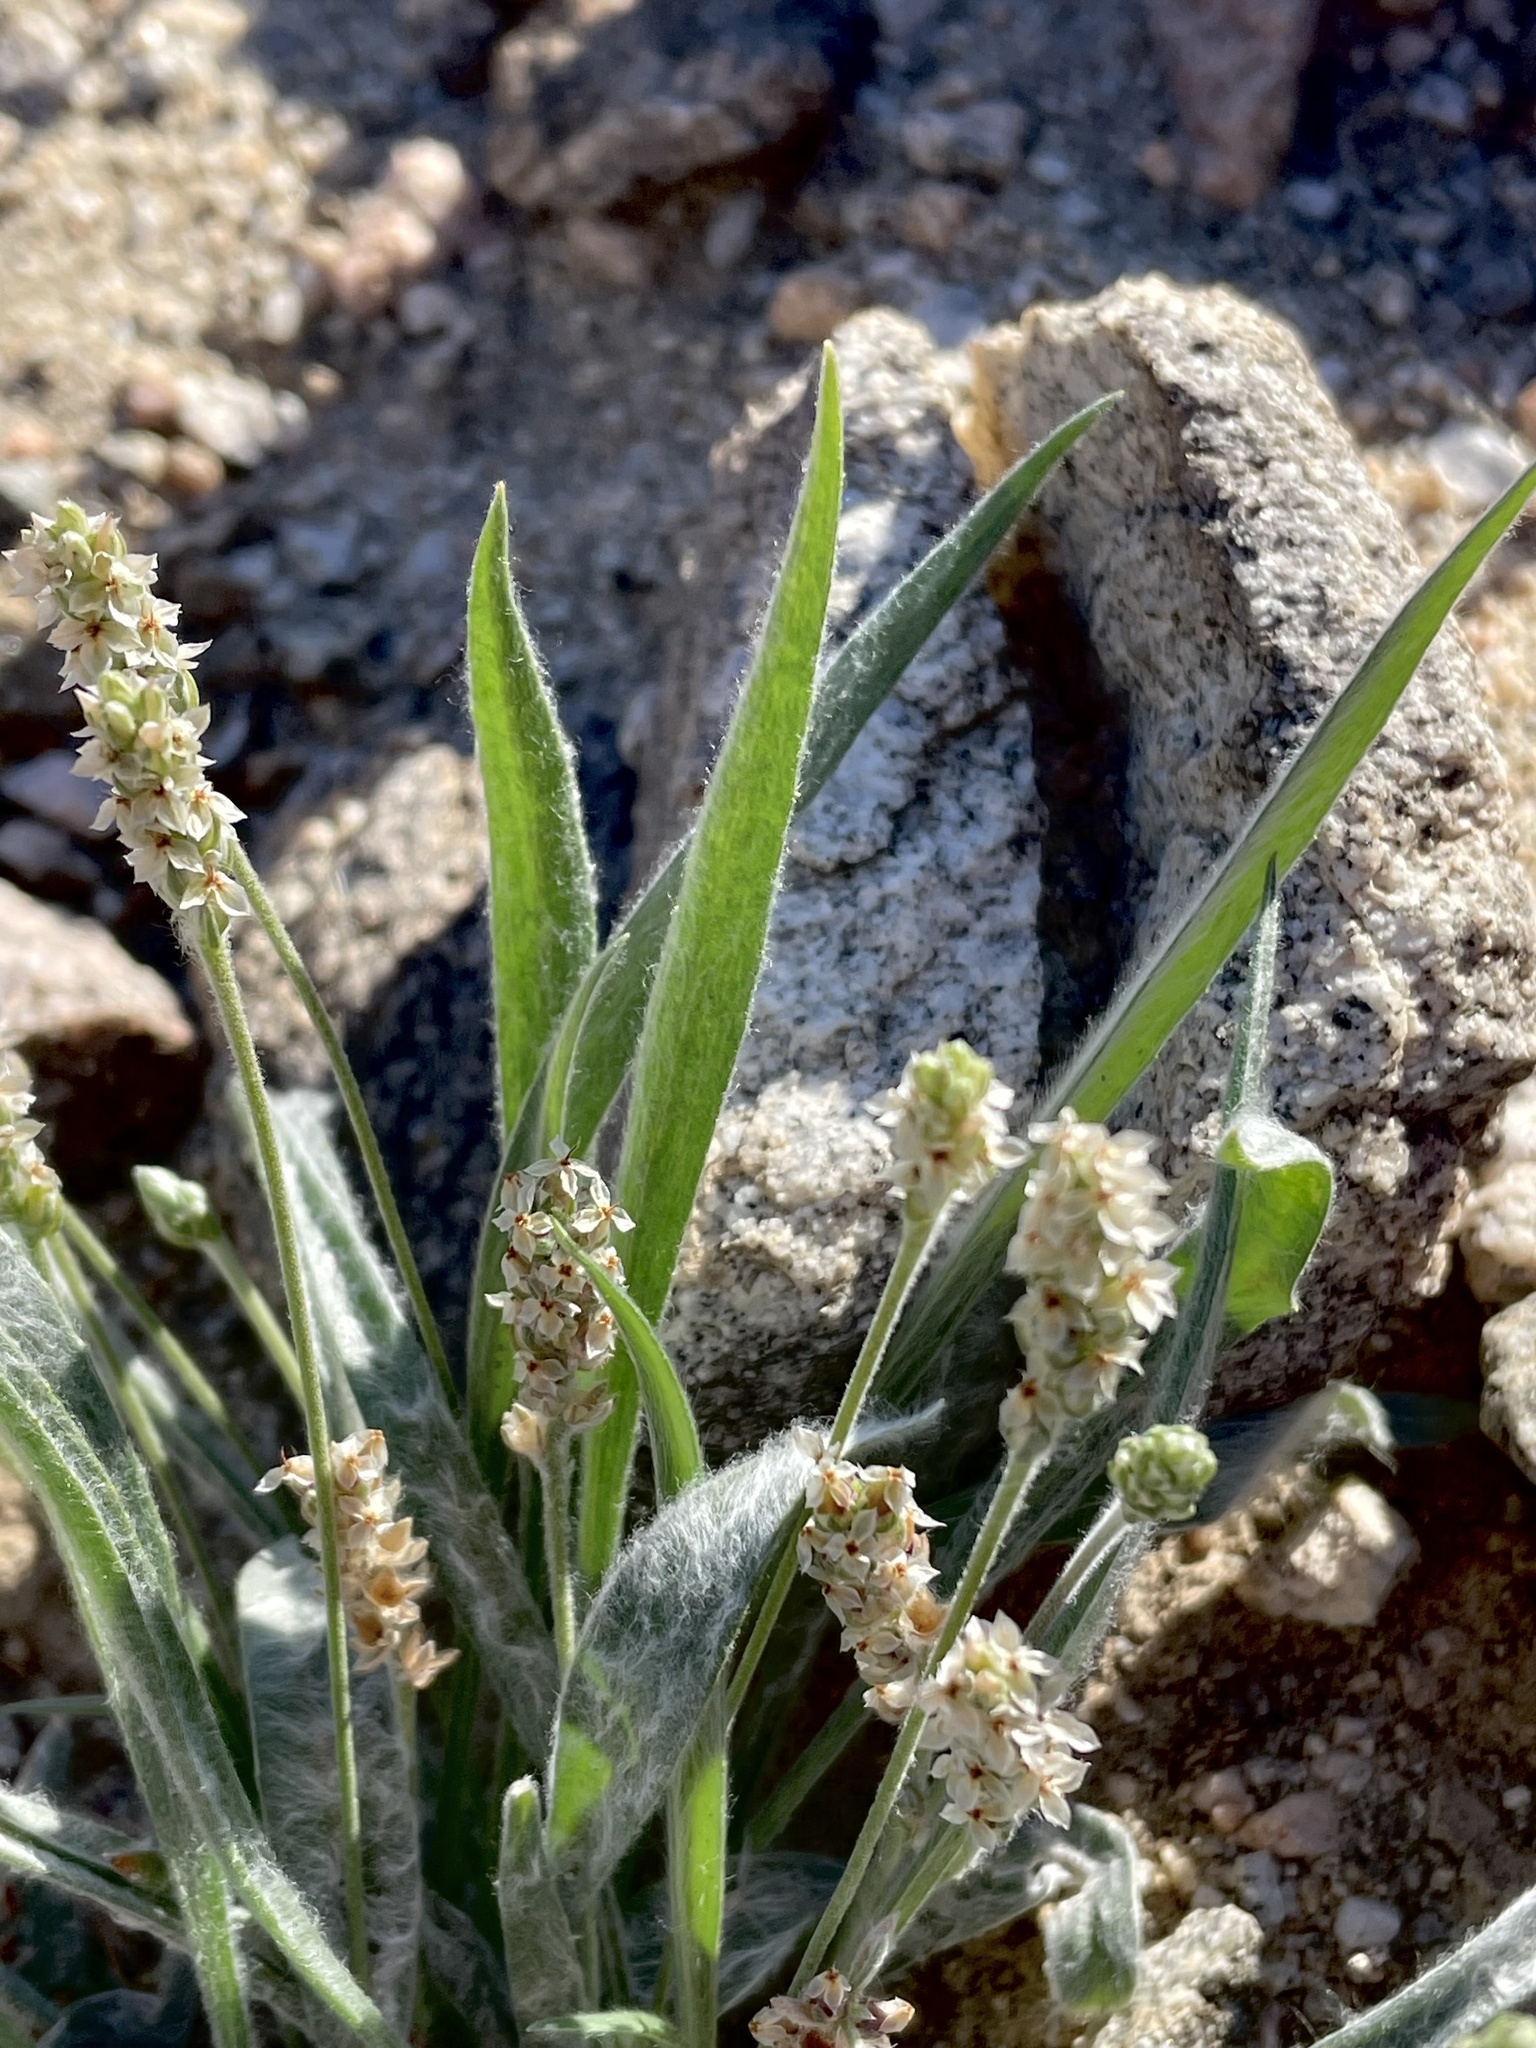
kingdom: Plantae
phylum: Tracheophyta
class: Magnoliopsida
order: Lamiales
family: Plantaginaceae
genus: Plantago
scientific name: Plantago ovata
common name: Blond plantain
